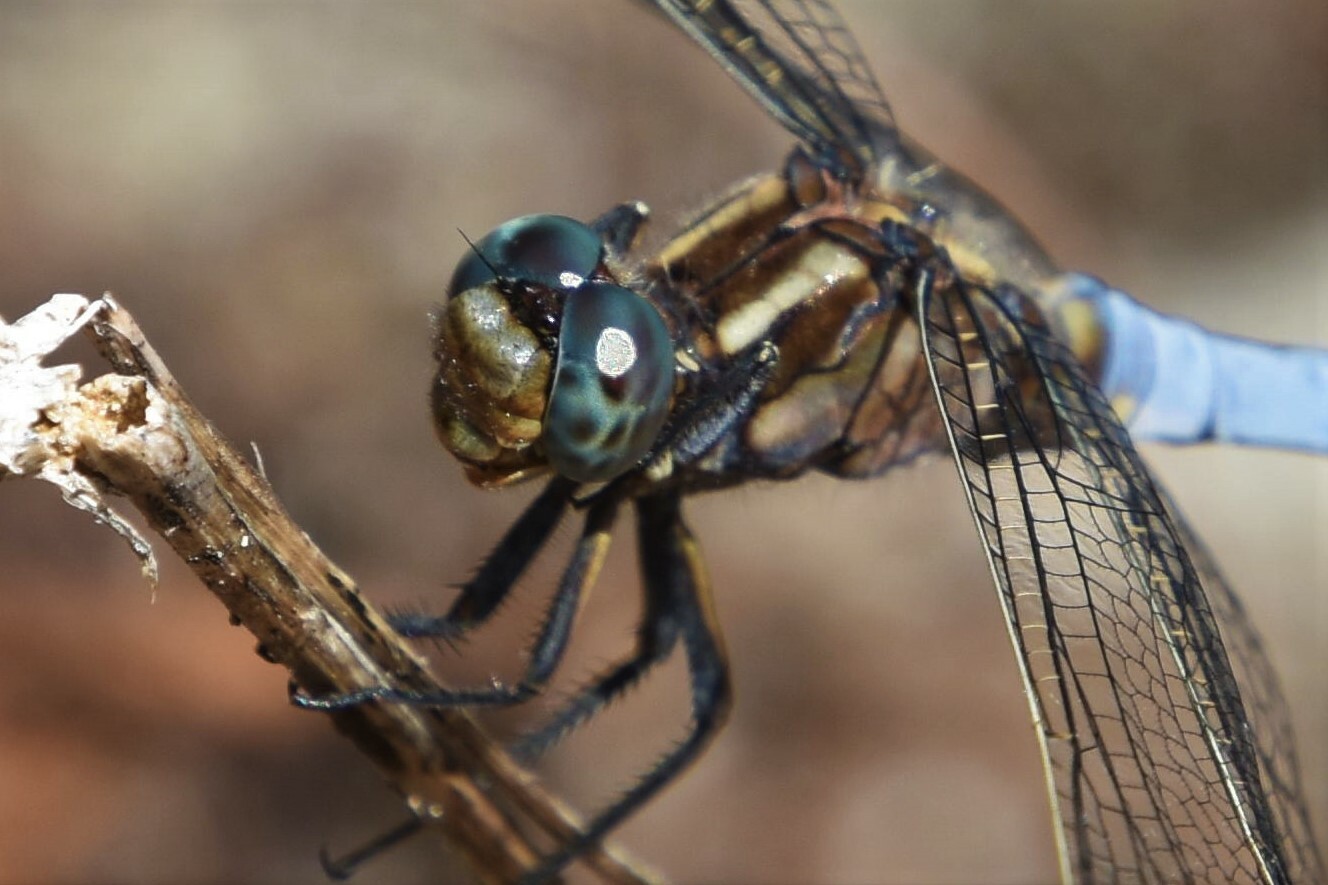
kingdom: Animalia
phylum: Arthropoda
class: Insecta
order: Odonata
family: Libellulidae
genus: Orthetrum
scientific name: Orthetrum coerulescens
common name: Keeled skimmer
